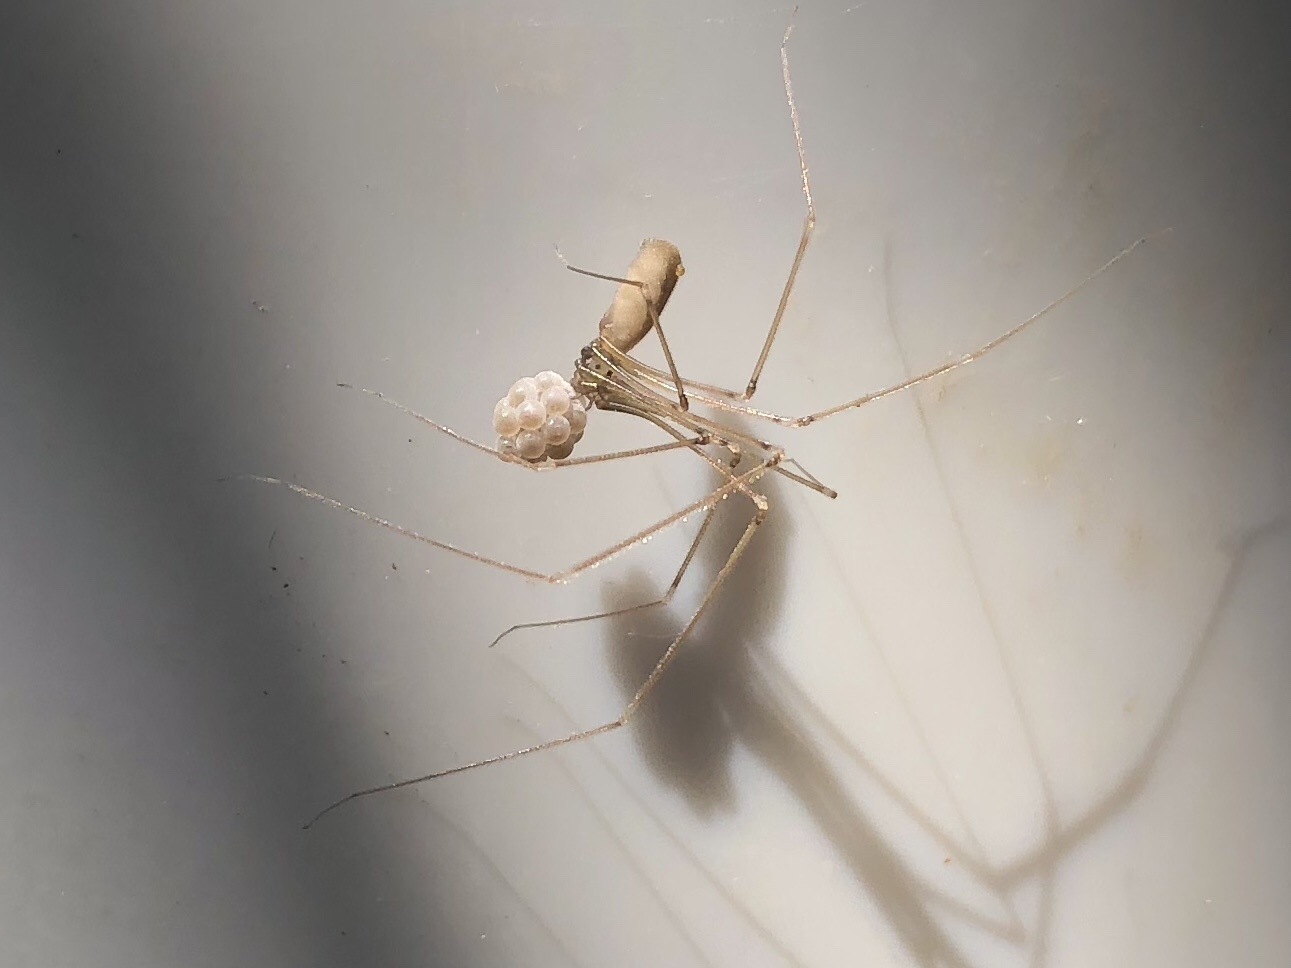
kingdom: Animalia
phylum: Arthropoda
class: Arachnida
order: Araneae
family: Pholcidae
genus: Pholcus
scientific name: Pholcus phalangioides
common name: Longbodied cellar spider
